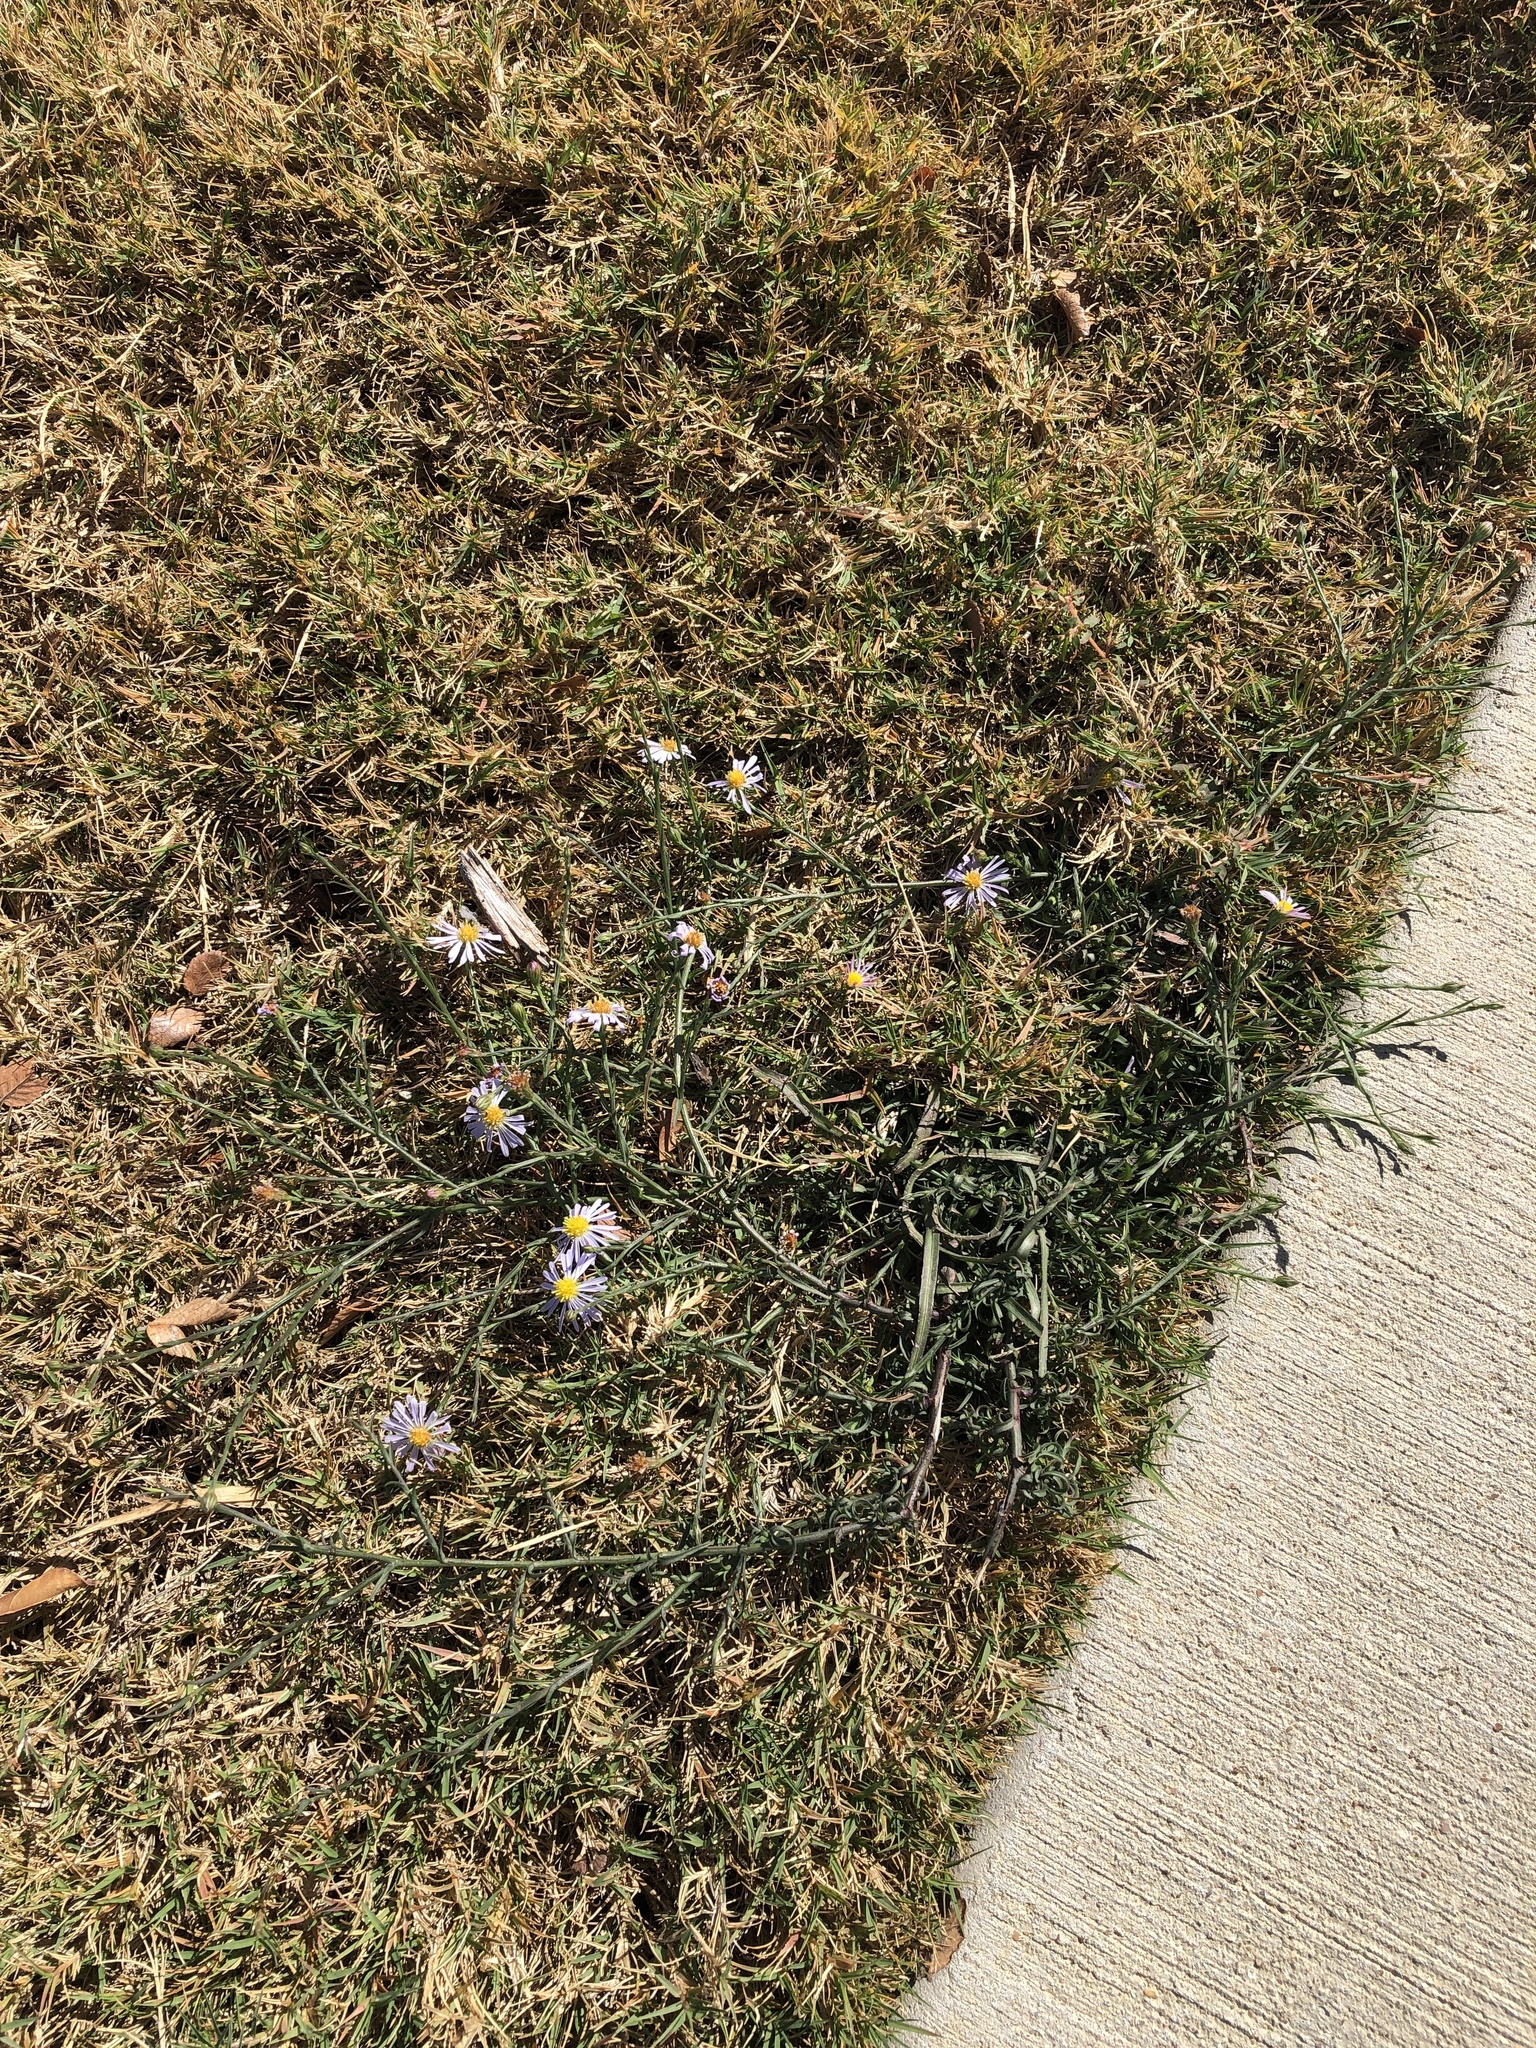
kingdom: Plantae
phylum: Tracheophyta
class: Magnoliopsida
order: Asterales
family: Asteraceae
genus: Symphyotrichum
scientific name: Symphyotrichum divaricatum
